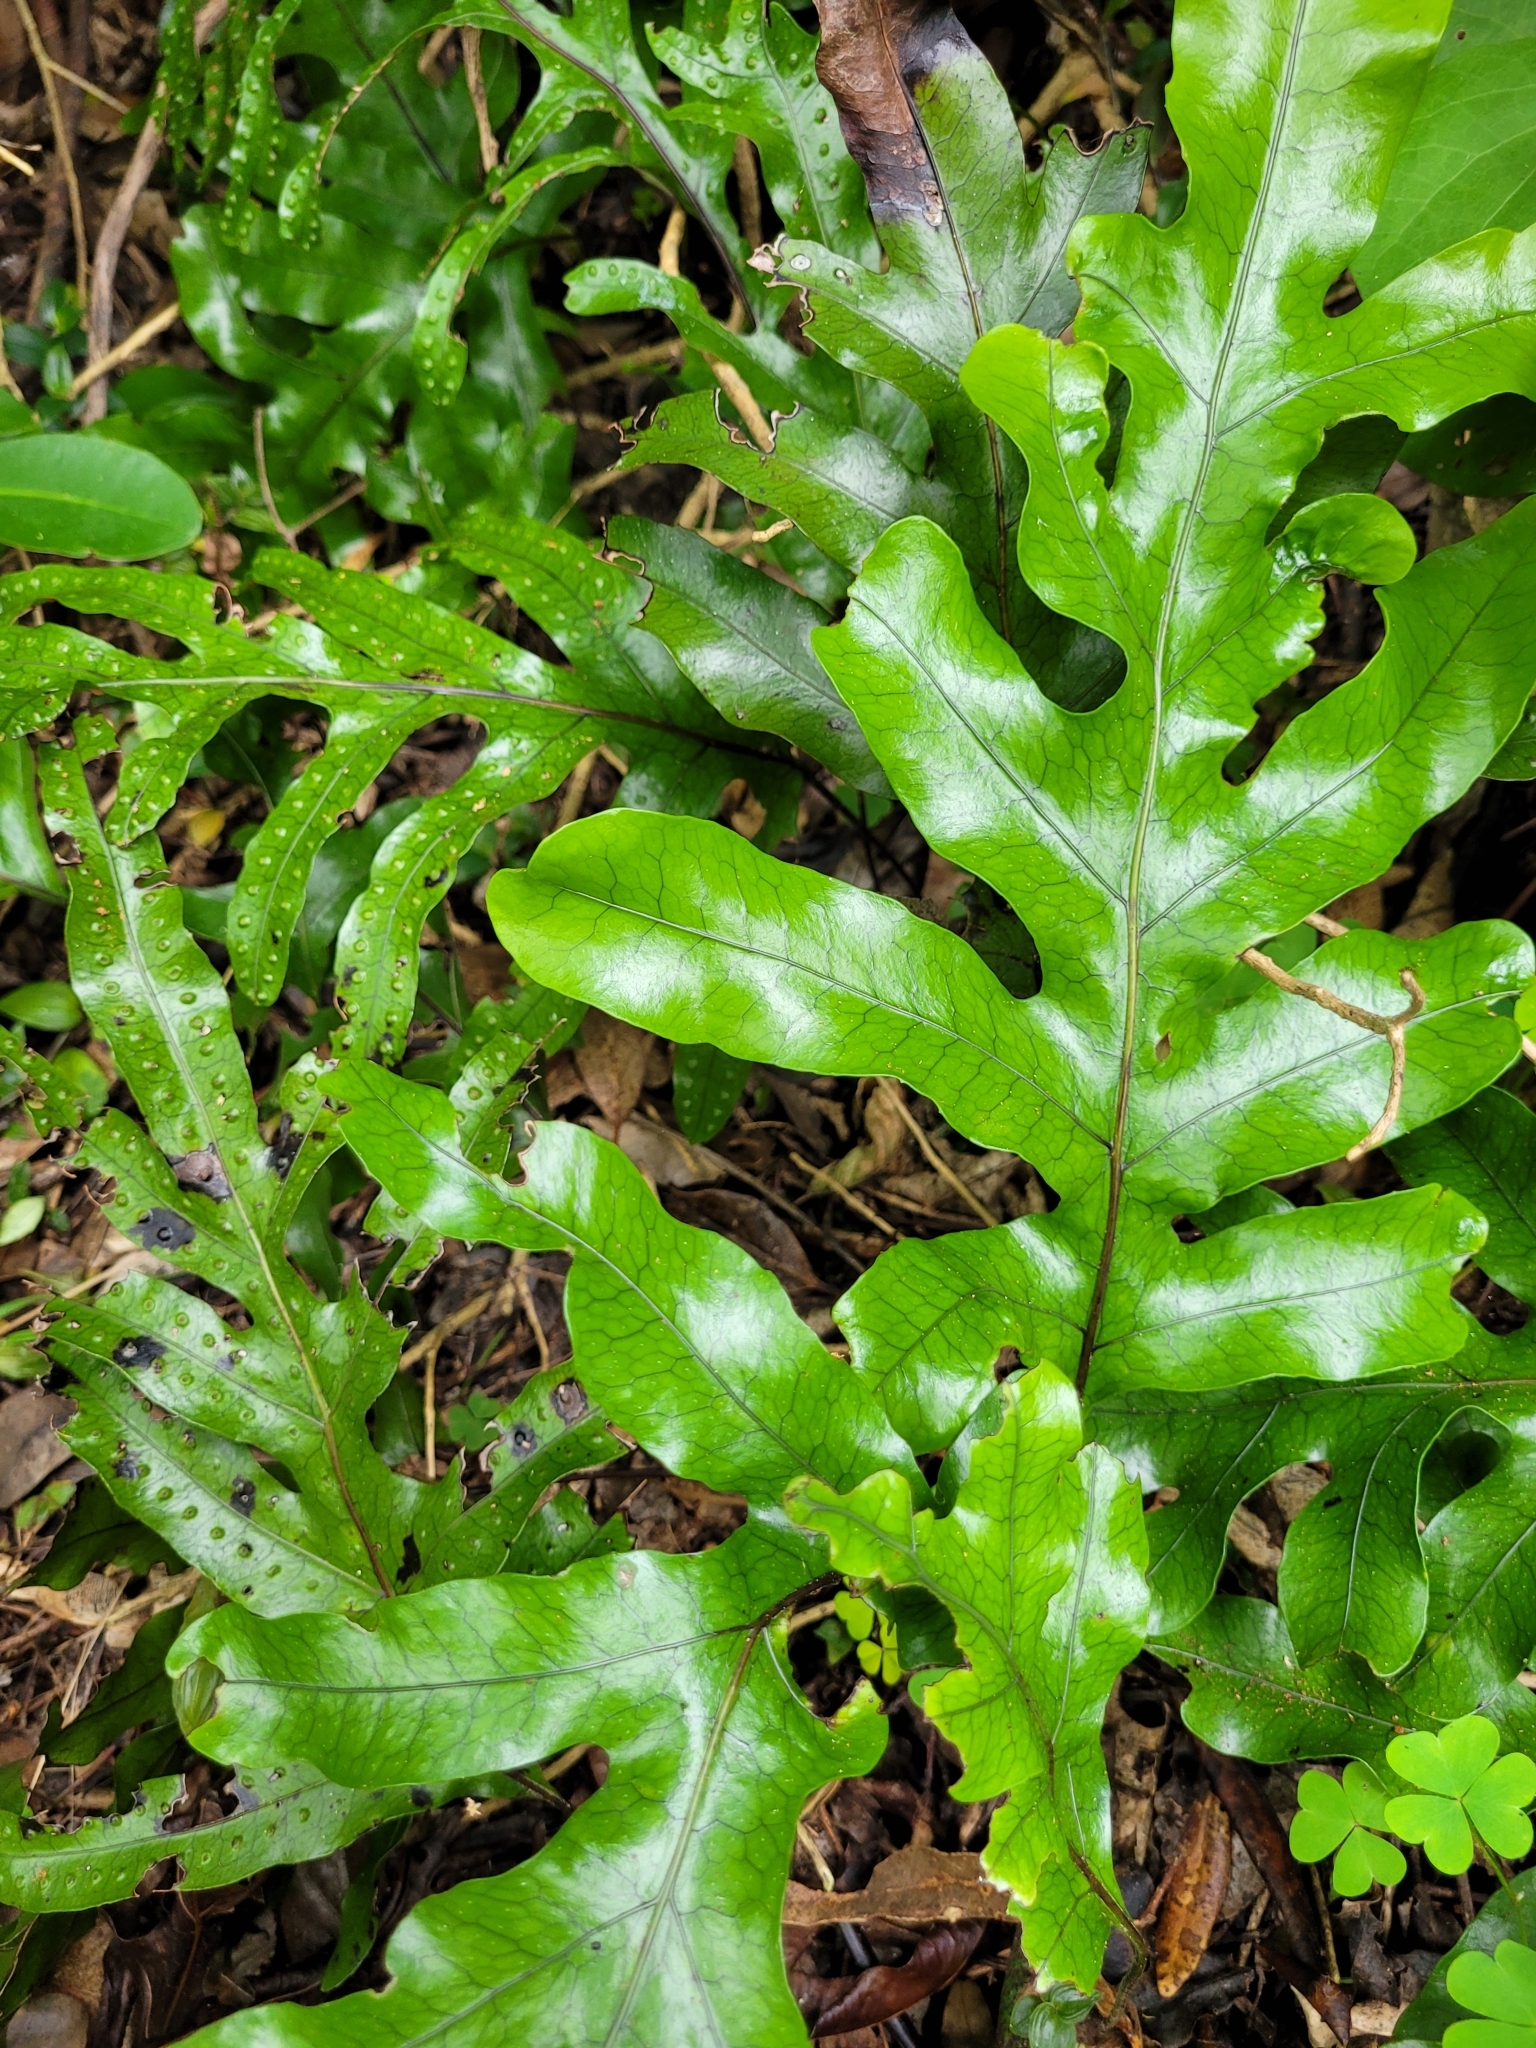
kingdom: Plantae
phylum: Tracheophyta
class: Polypodiopsida
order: Polypodiales
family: Polypodiaceae
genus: Lecanopteris
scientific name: Lecanopteris pustulata
